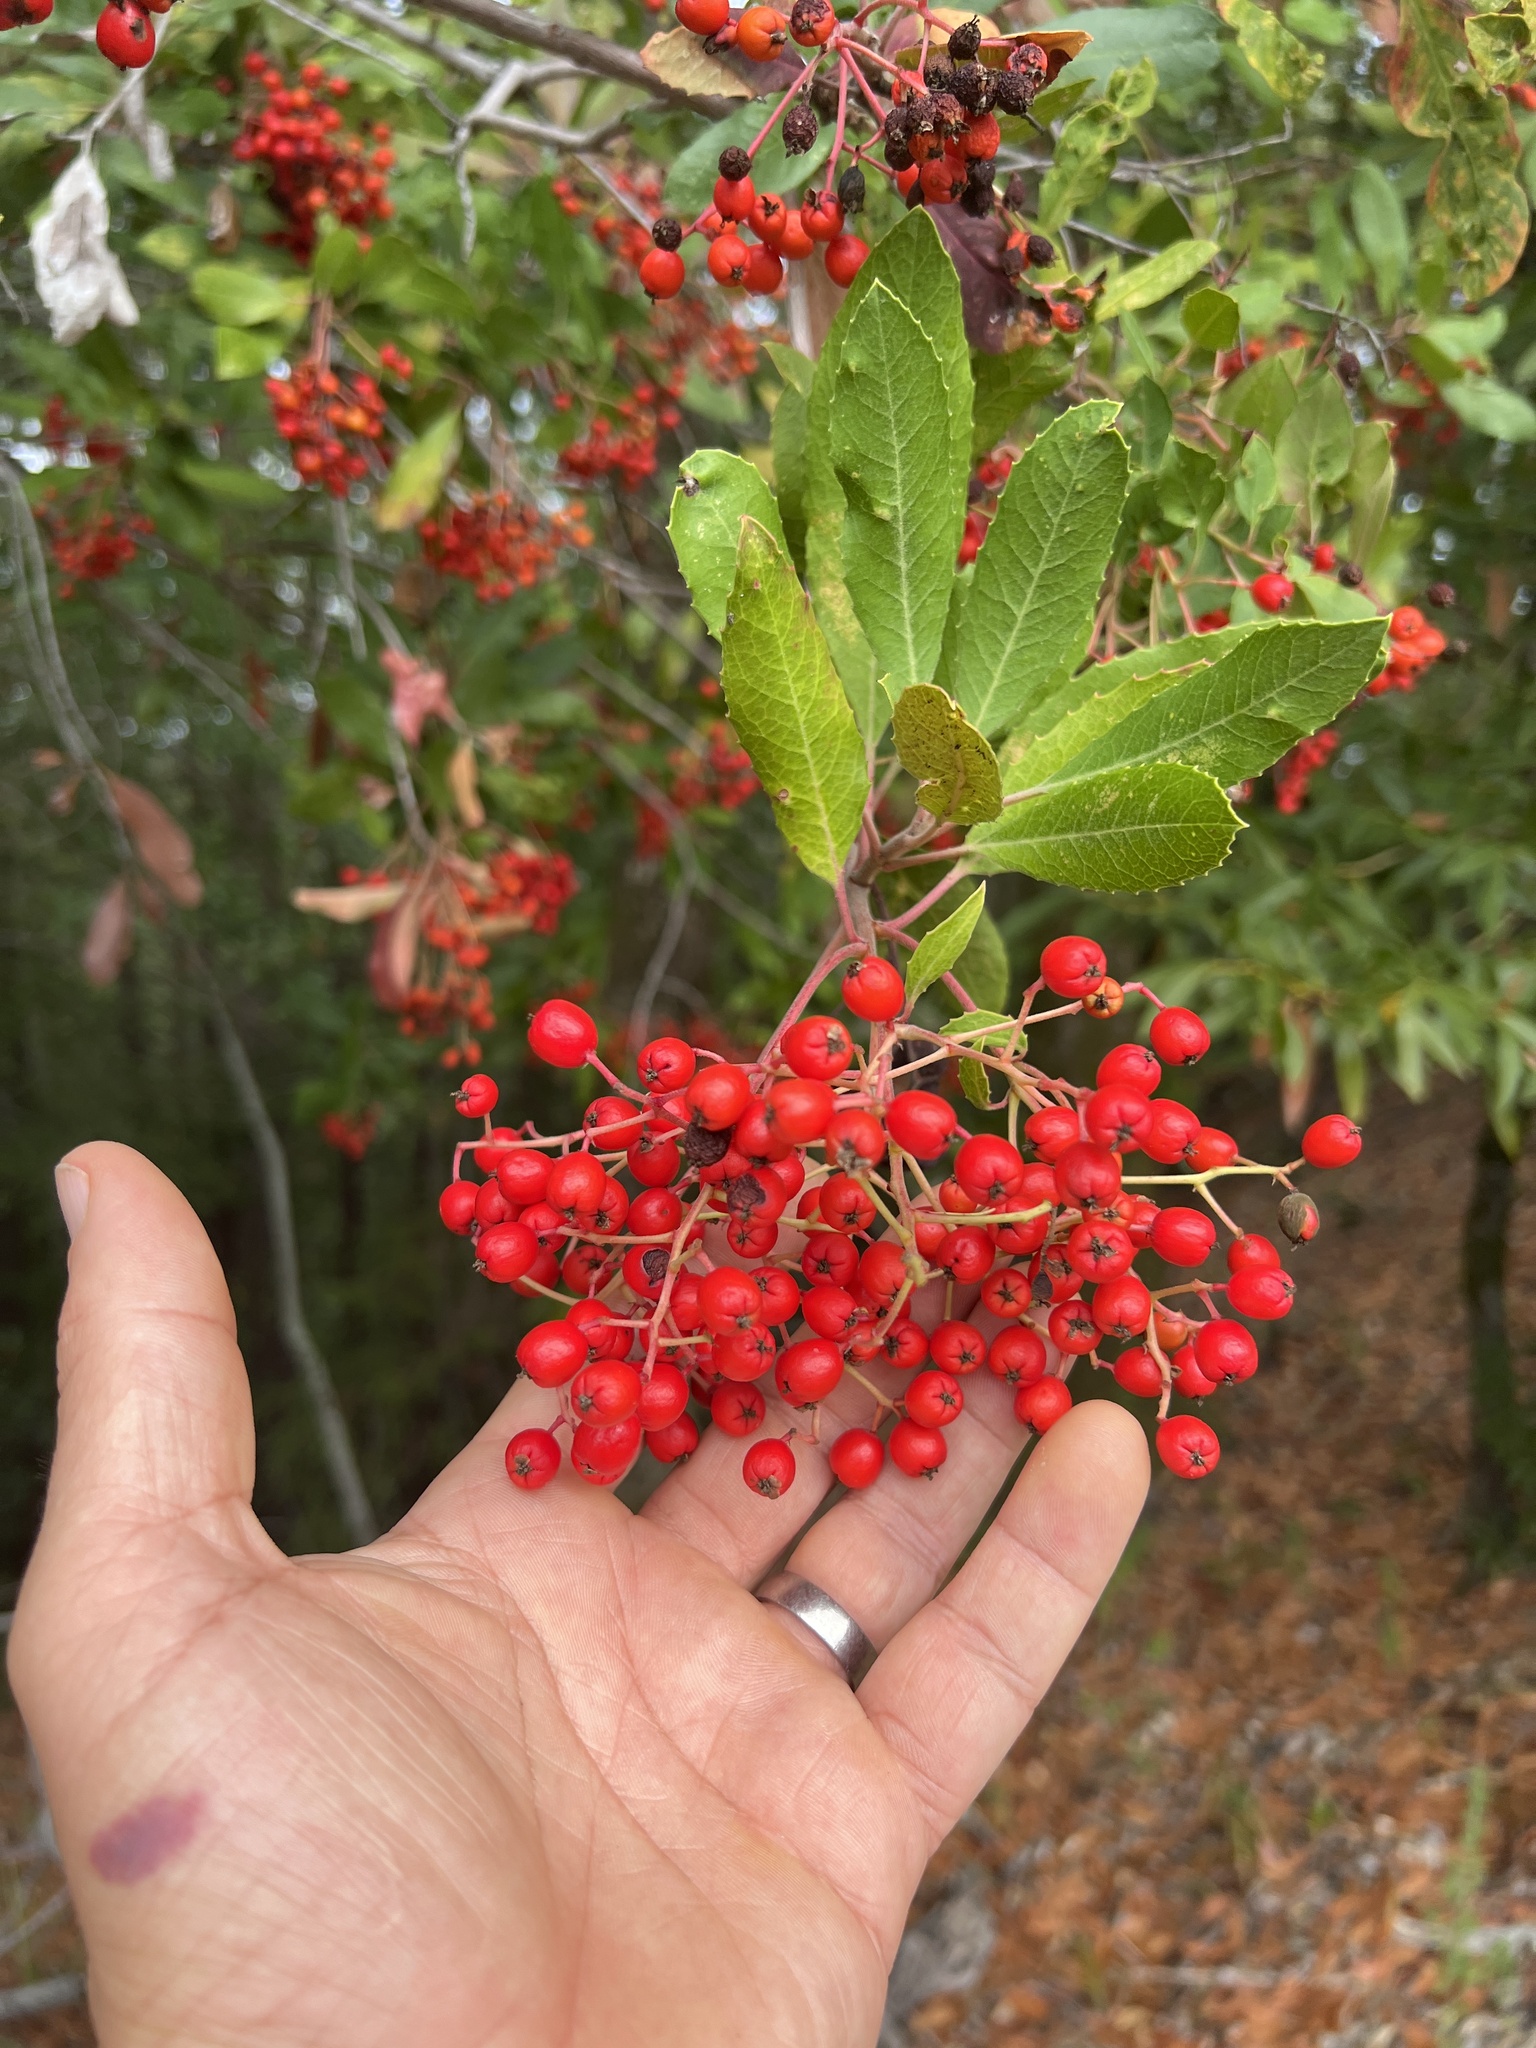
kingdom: Plantae
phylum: Tracheophyta
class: Magnoliopsida
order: Rosales
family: Rosaceae
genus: Heteromeles
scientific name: Heteromeles arbutifolia
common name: California-holly
